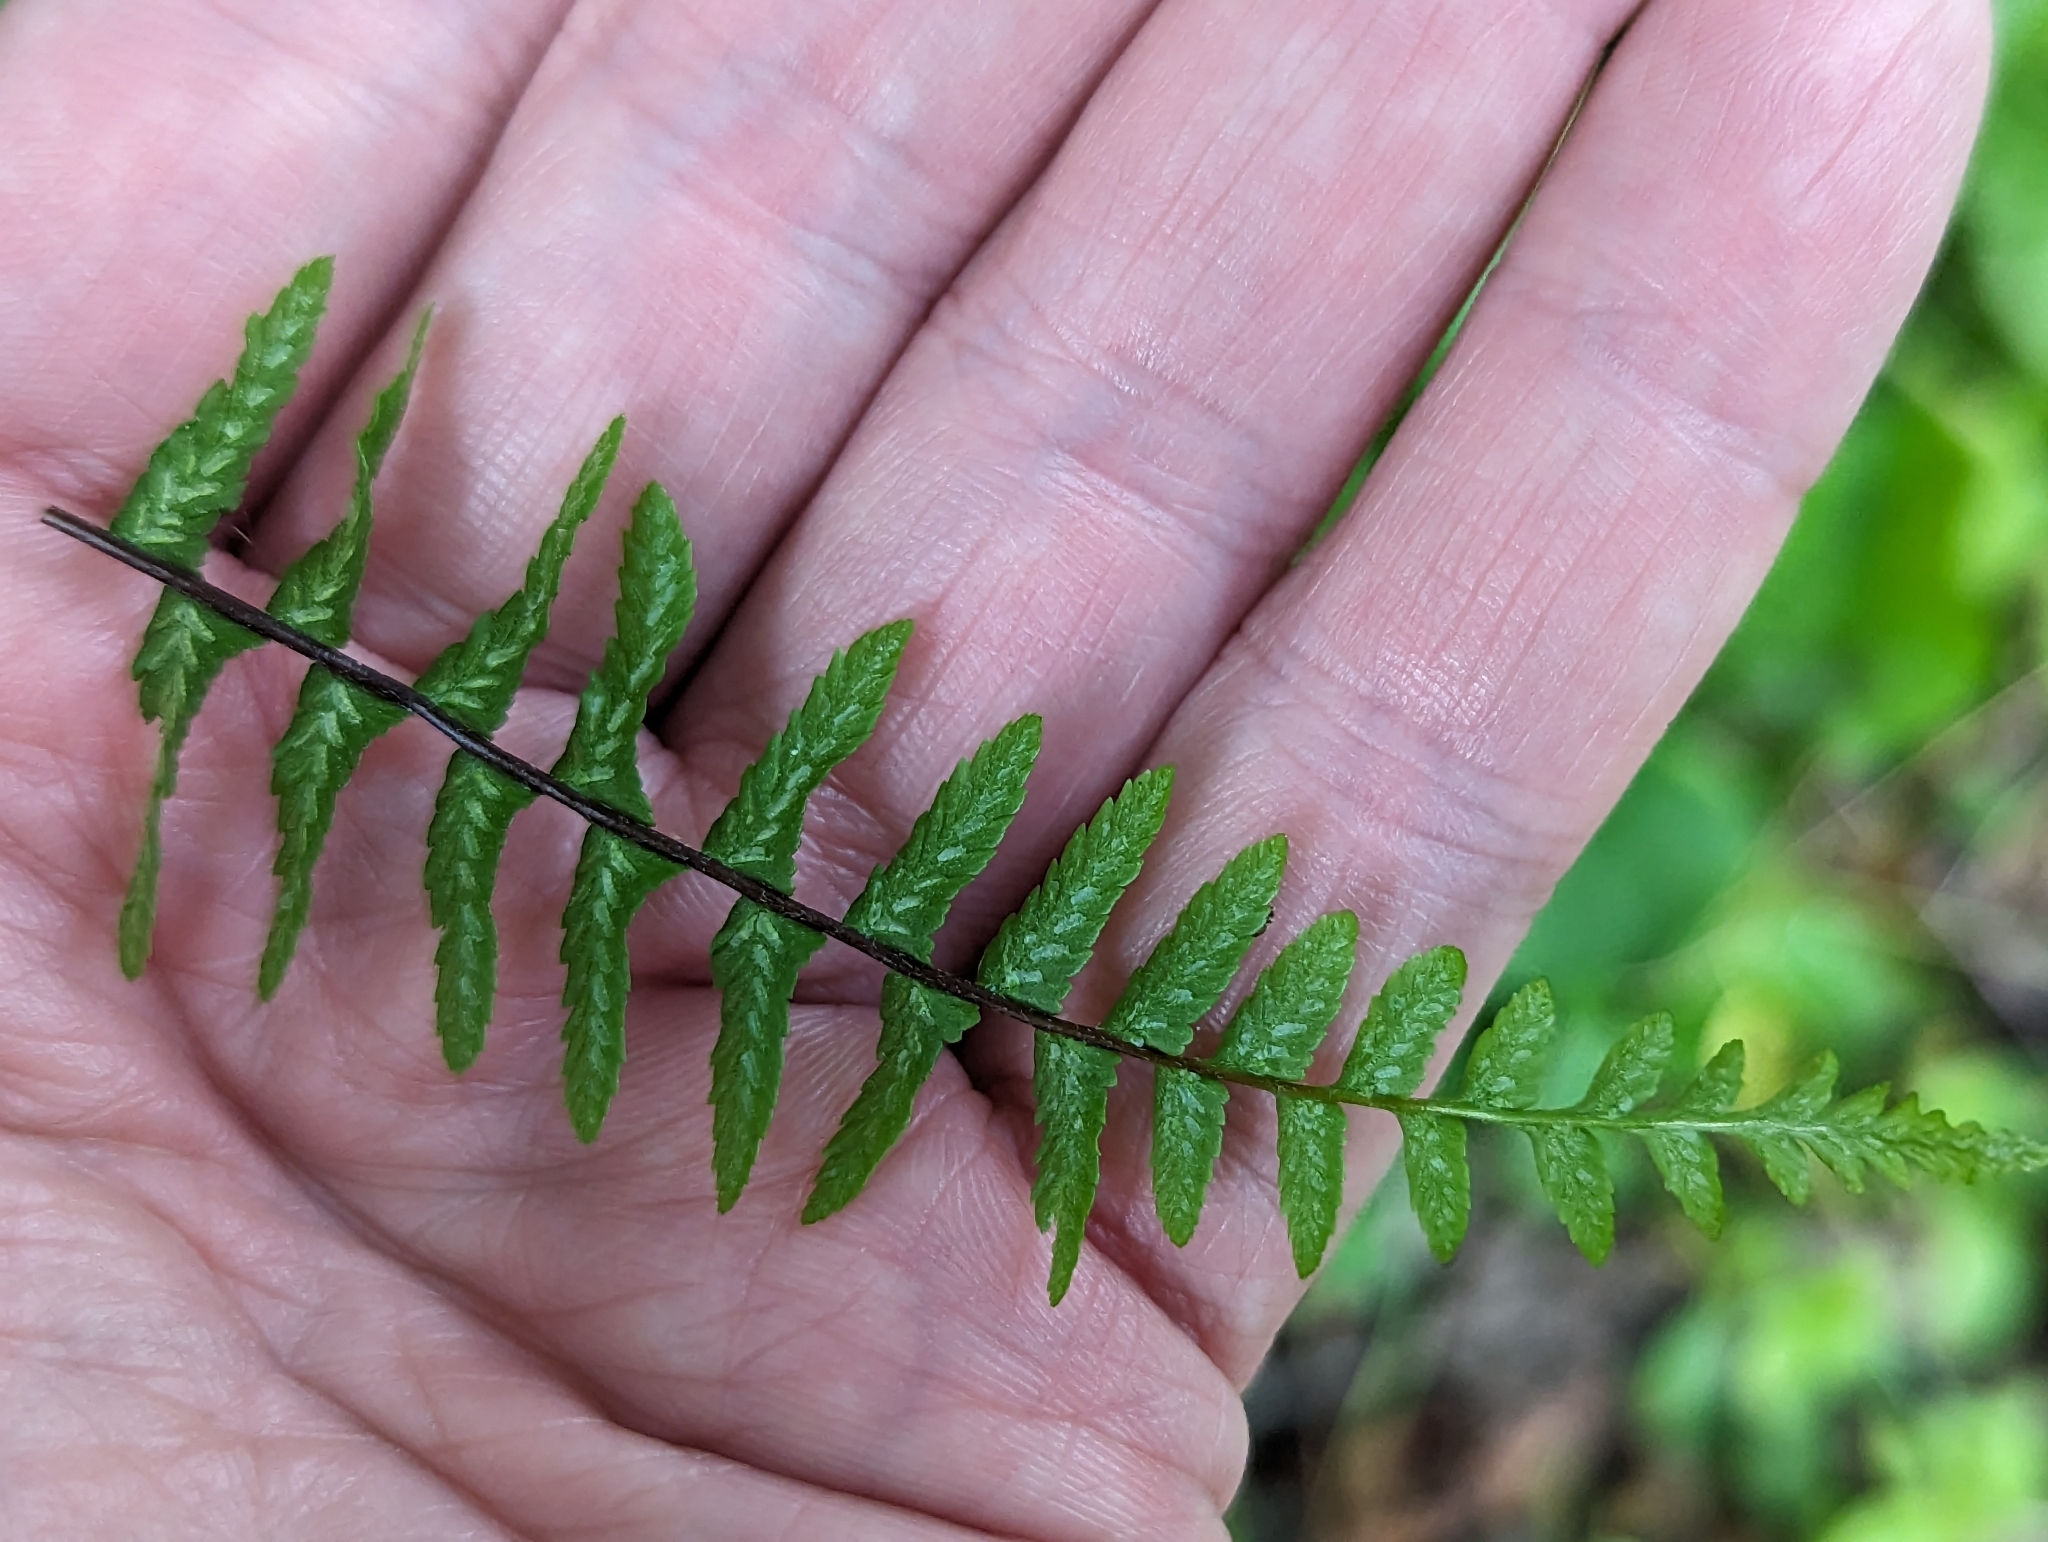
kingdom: Plantae
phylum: Tracheophyta
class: Polypodiopsida
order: Polypodiales
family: Aspleniaceae
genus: Asplenium
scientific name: Asplenium platyneuron
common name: Ebony spleenwort
